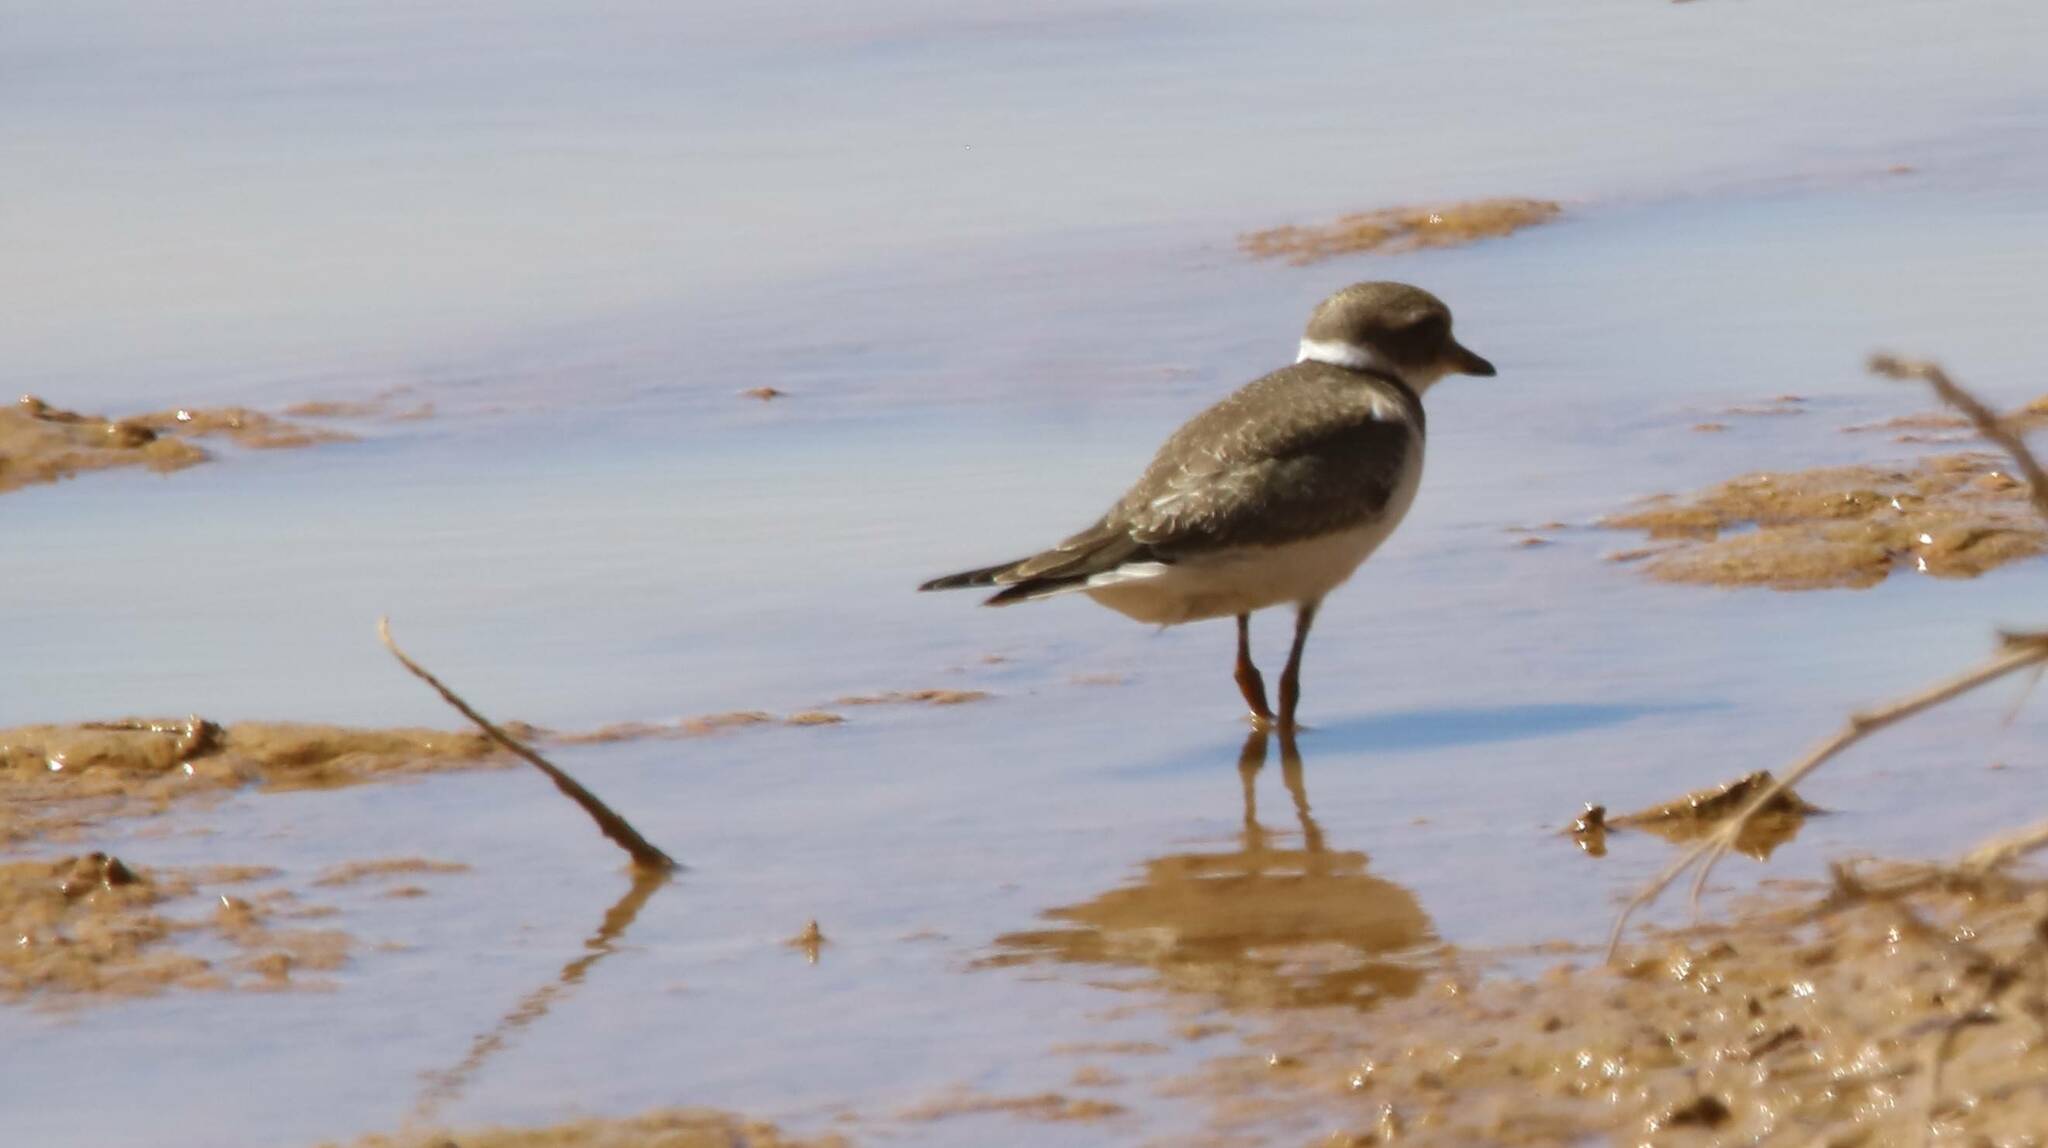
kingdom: Animalia
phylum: Chordata
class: Aves
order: Charadriiformes
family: Charadriidae
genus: Charadrius
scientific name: Charadrius hiaticula
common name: Common ringed plover
